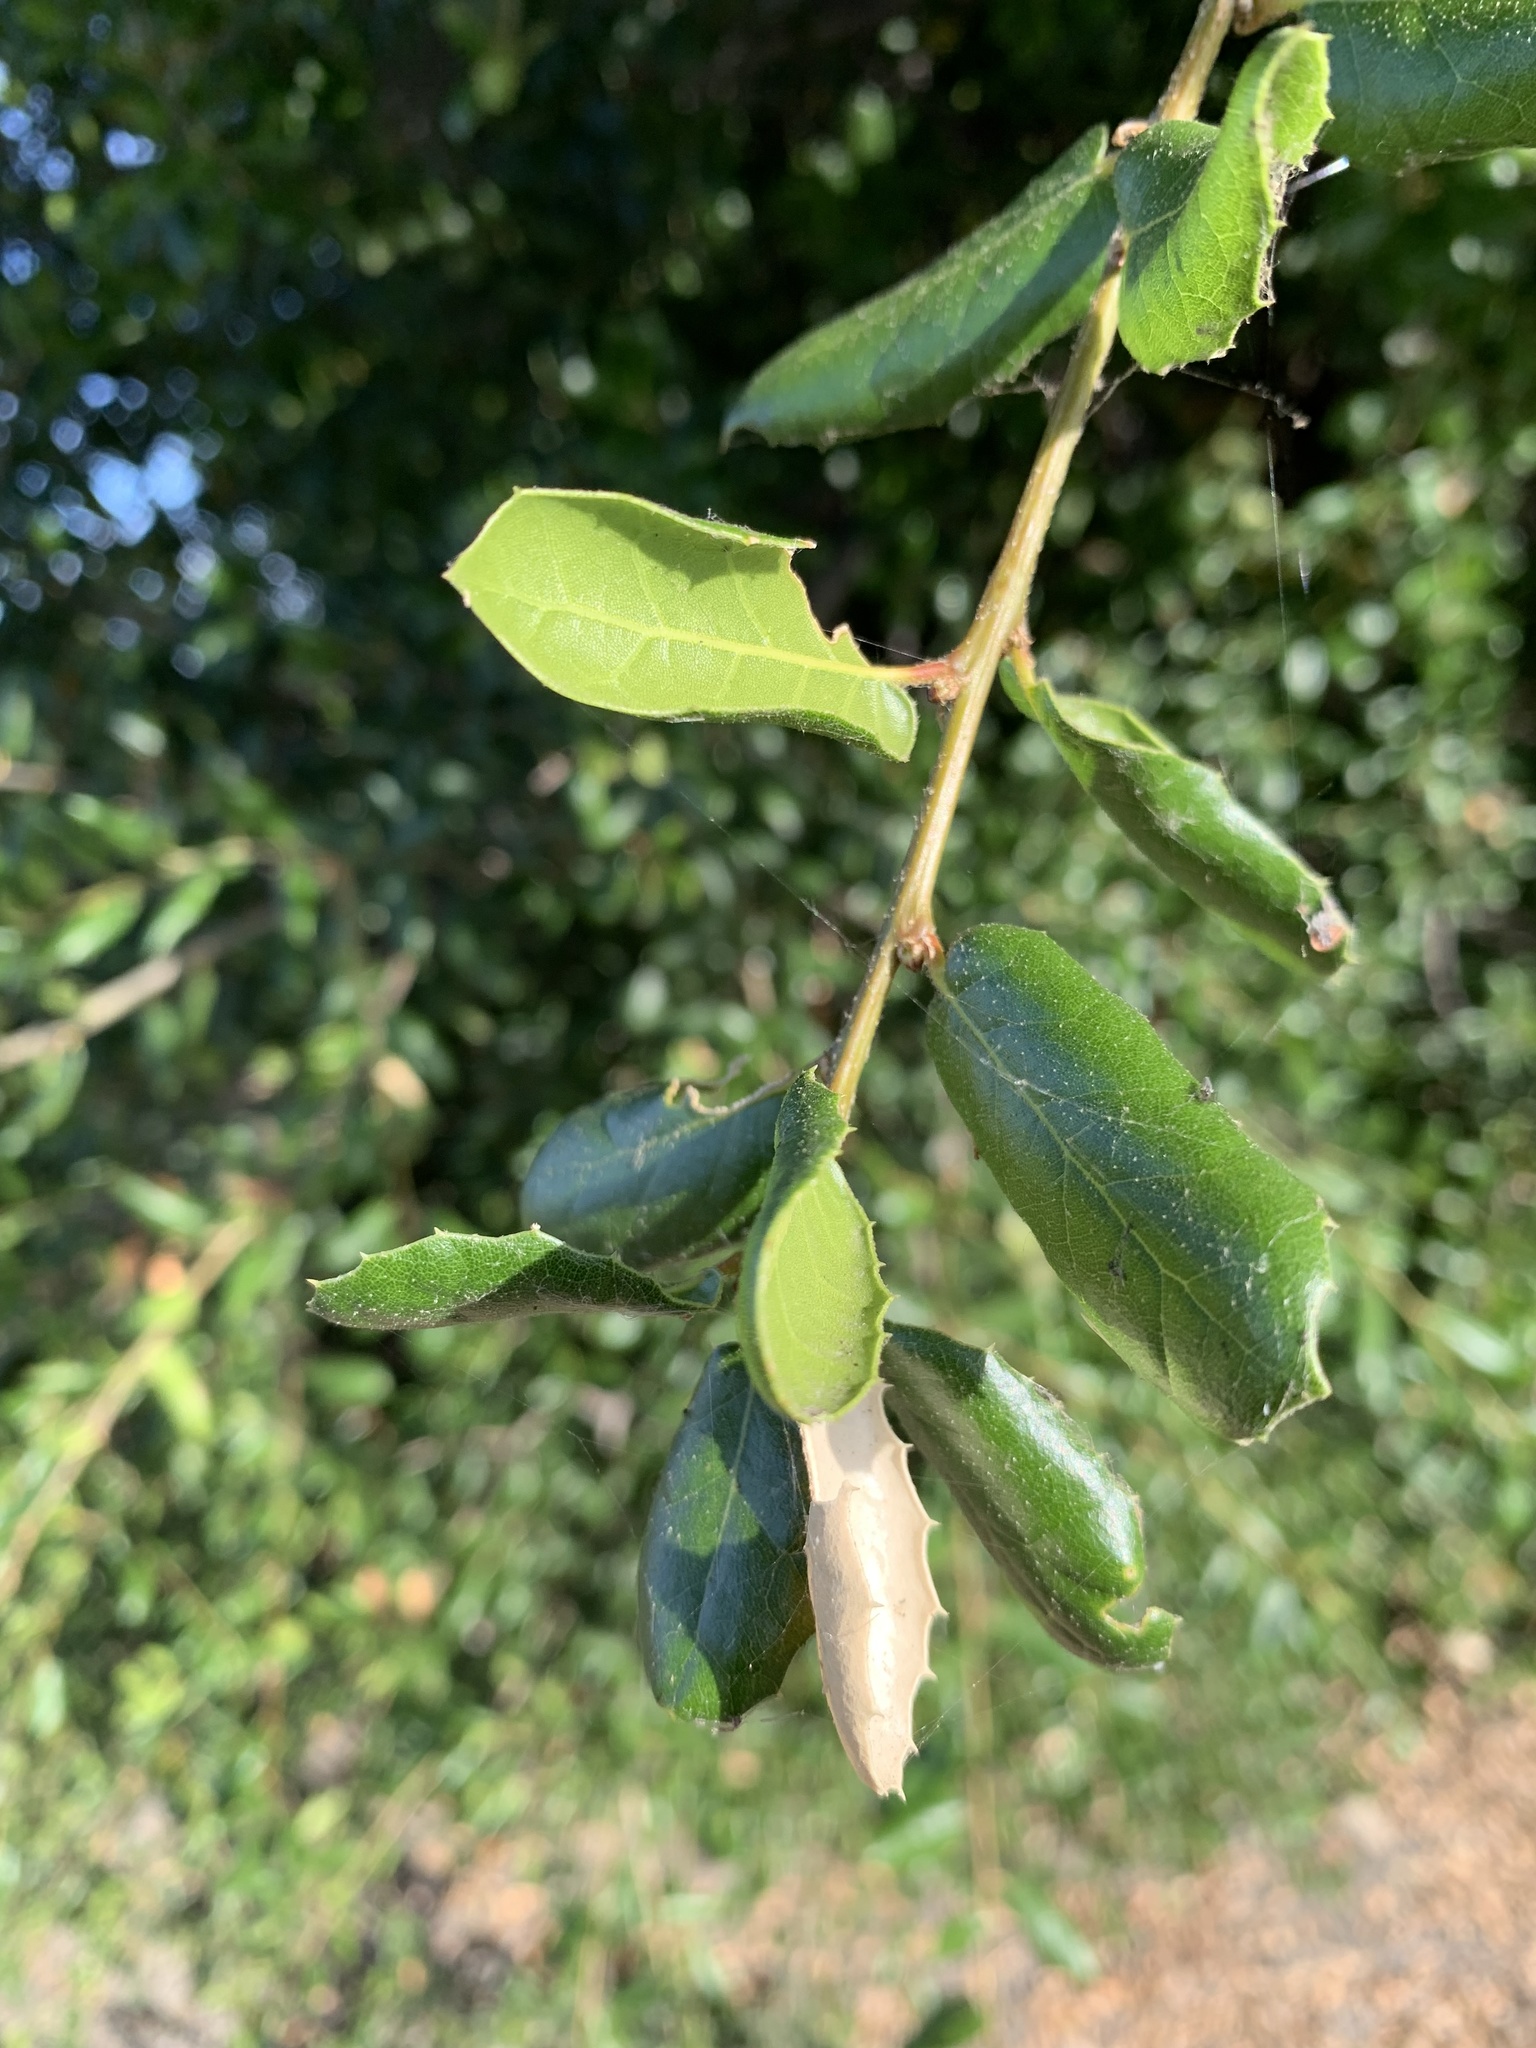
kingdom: Plantae
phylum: Tracheophyta
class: Magnoliopsida
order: Fagales
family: Fagaceae
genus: Quercus
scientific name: Quercus agrifolia
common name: California live oak
